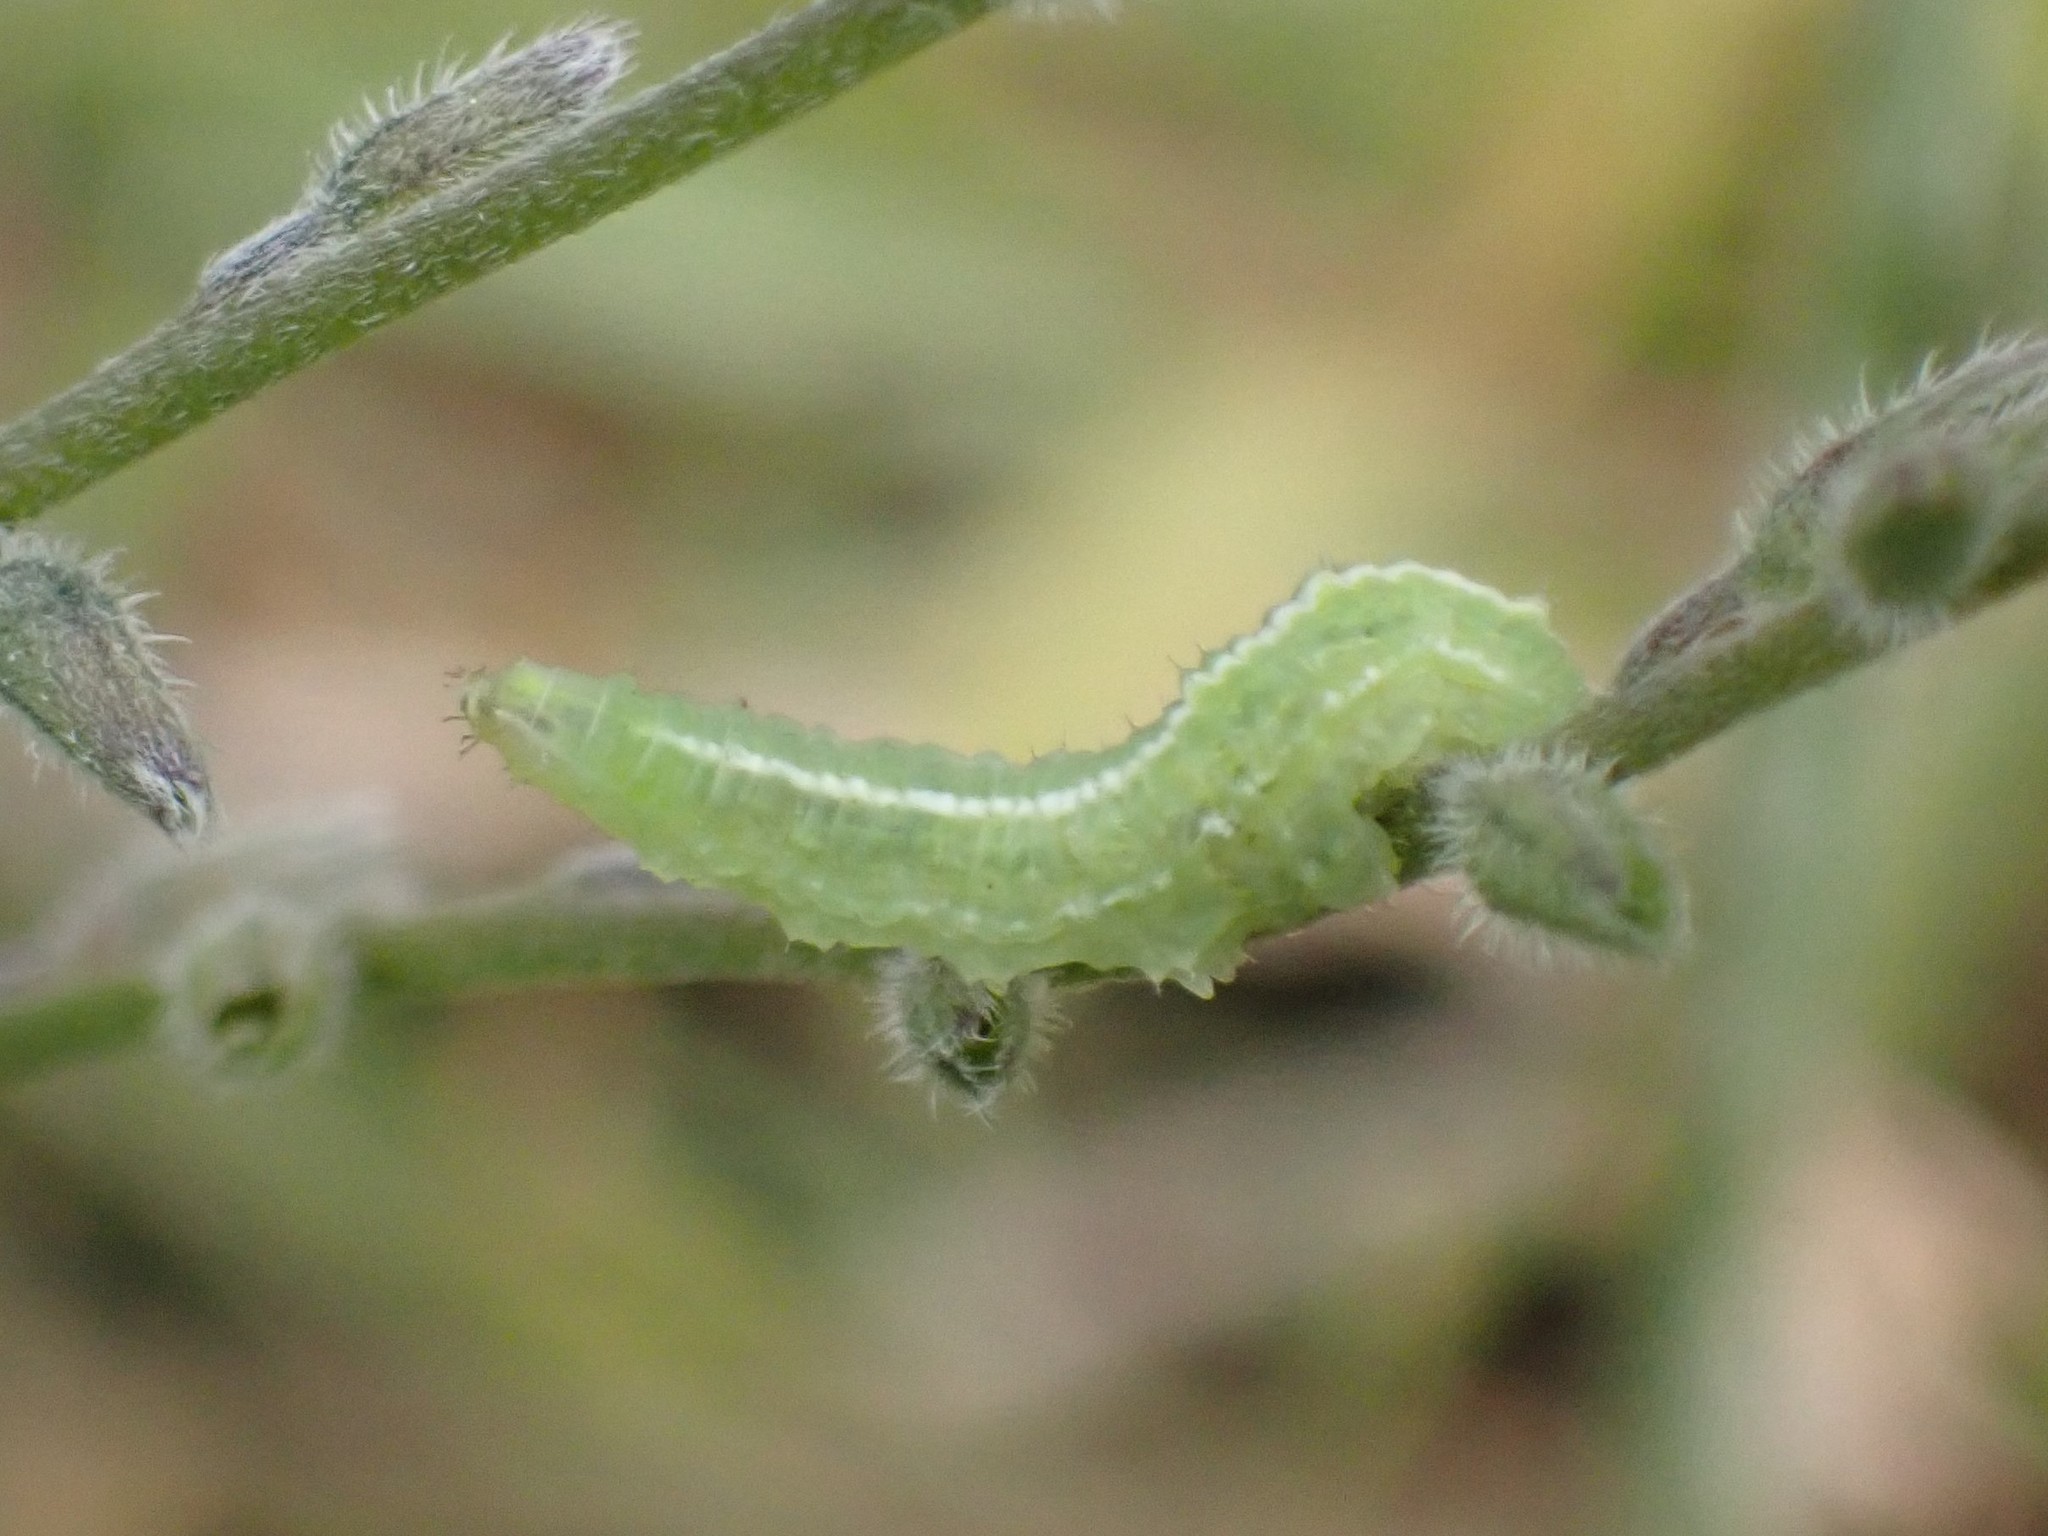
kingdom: Animalia
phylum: Arthropoda
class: Insecta
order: Diptera
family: Syrphidae
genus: Scaeva
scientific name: Scaeva affinis
